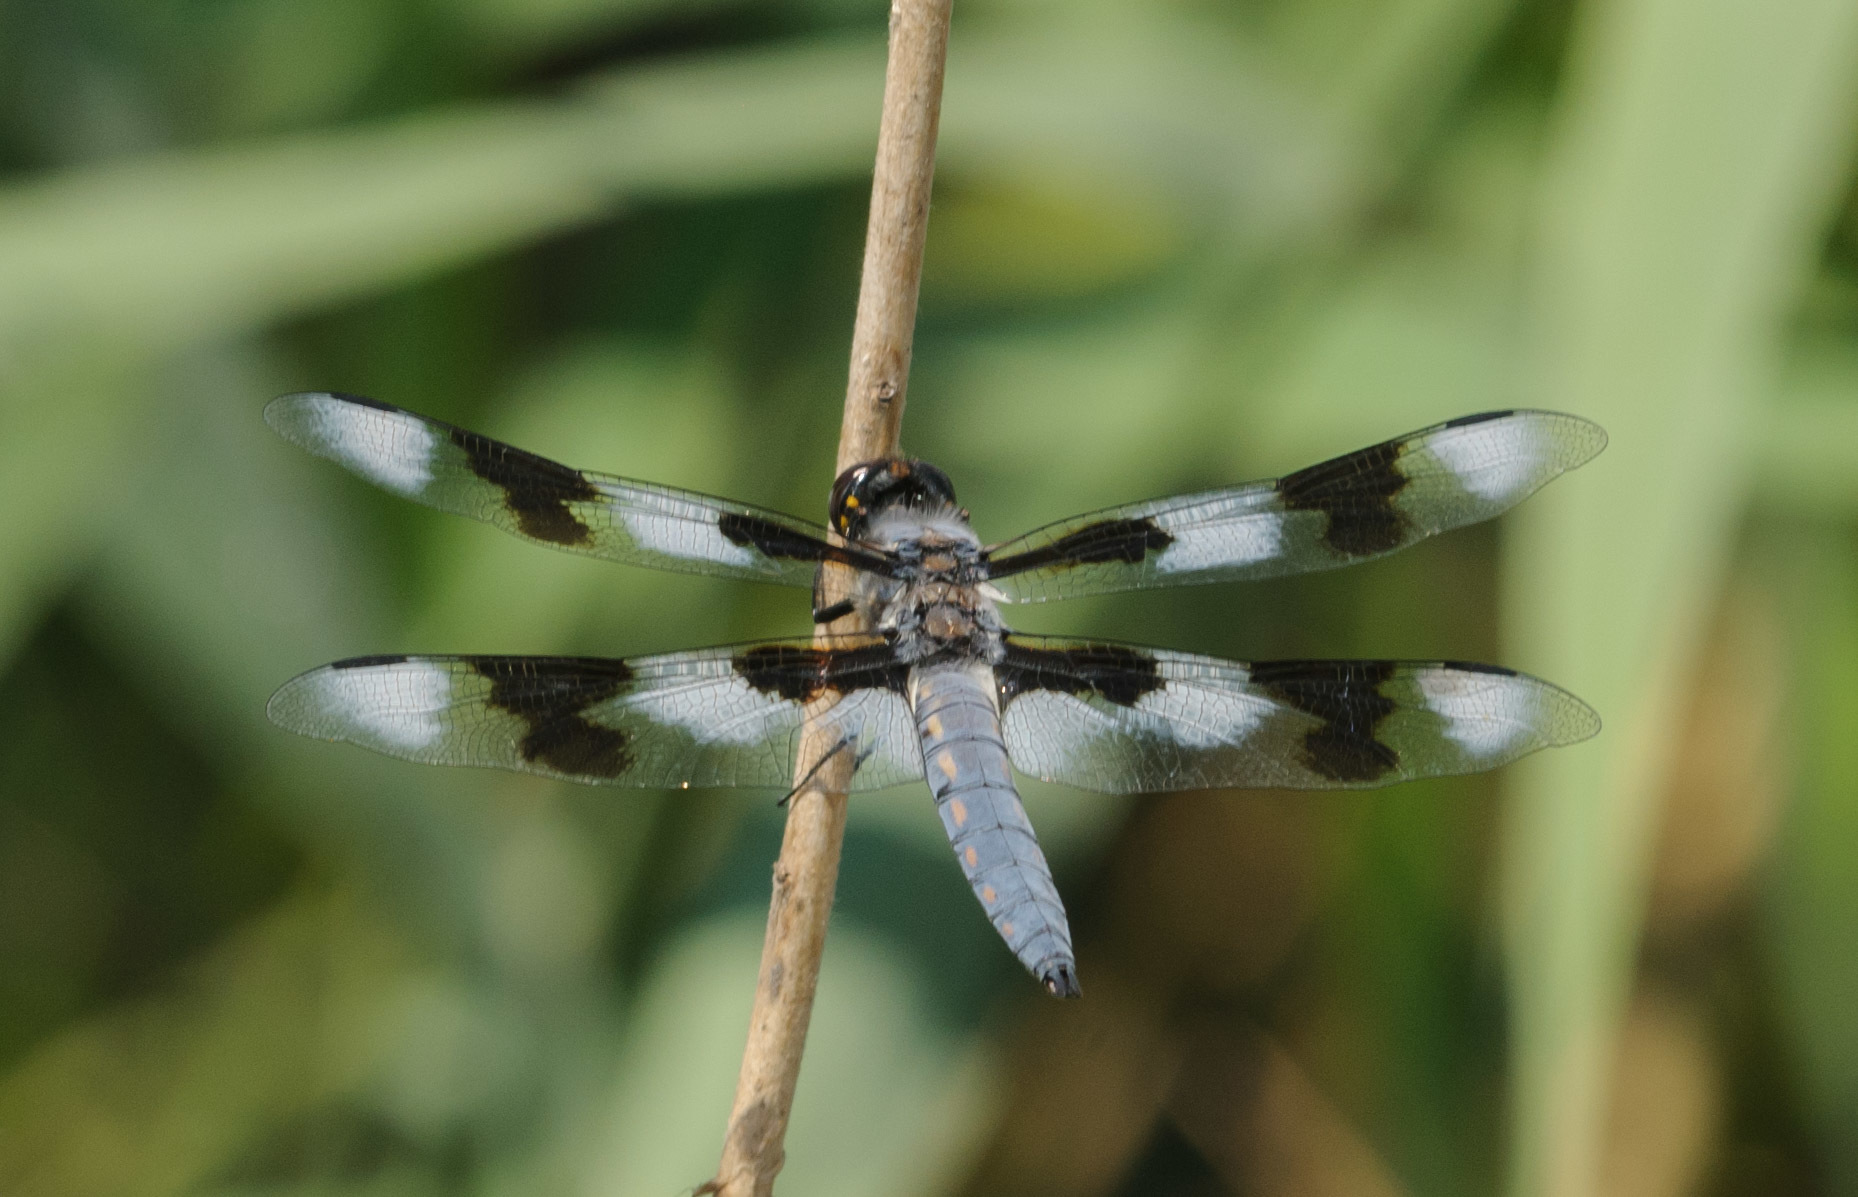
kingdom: Animalia
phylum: Arthropoda
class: Insecta
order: Odonata
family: Libellulidae
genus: Libellula
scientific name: Libellula forensis
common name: Eight-spotted skimmer
